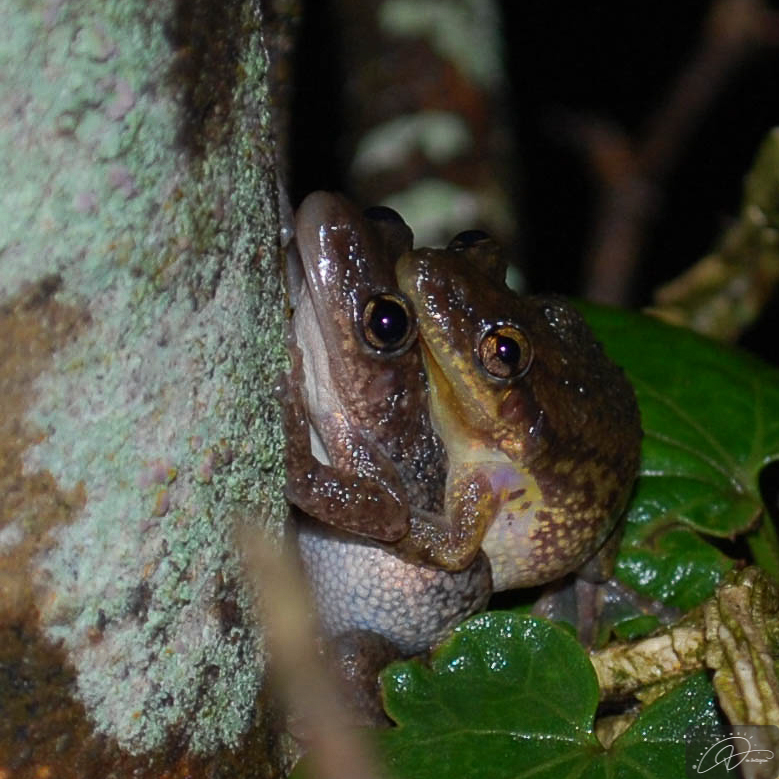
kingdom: Animalia
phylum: Chordata
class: Amphibia
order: Anura
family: Hylidae
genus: Scinax
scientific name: Scinax fuscovarius
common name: Fuscous-blotched treefrog
